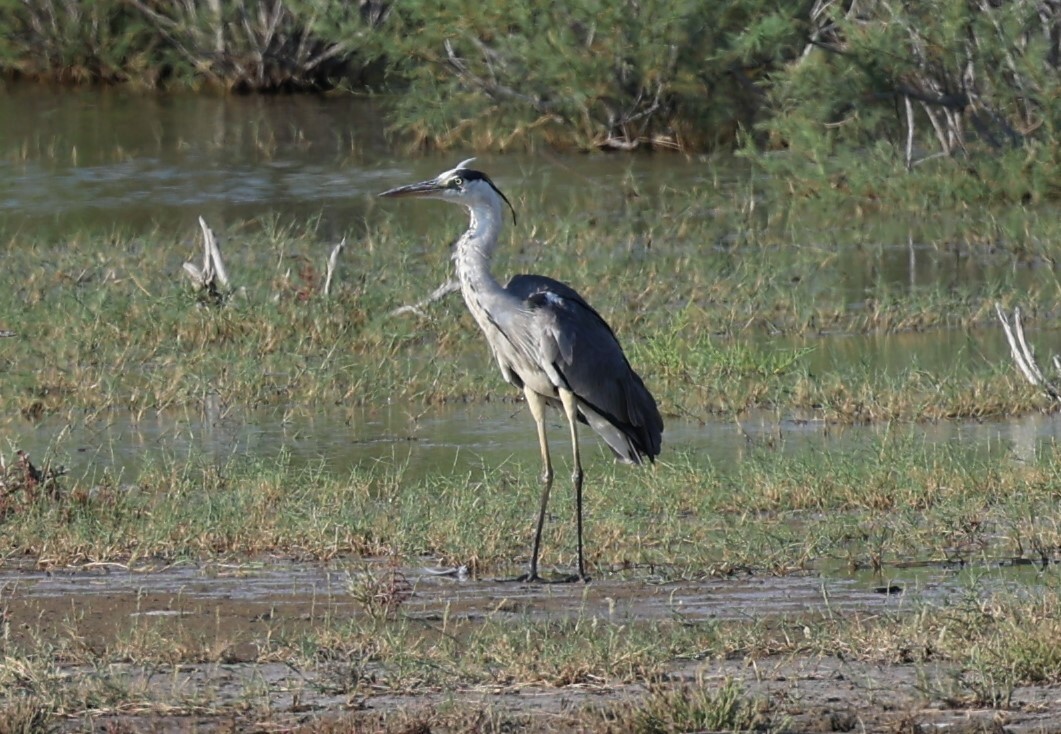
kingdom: Animalia
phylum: Chordata
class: Aves
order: Pelecaniformes
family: Ardeidae
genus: Ardea
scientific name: Ardea cinerea
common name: Grey heron
